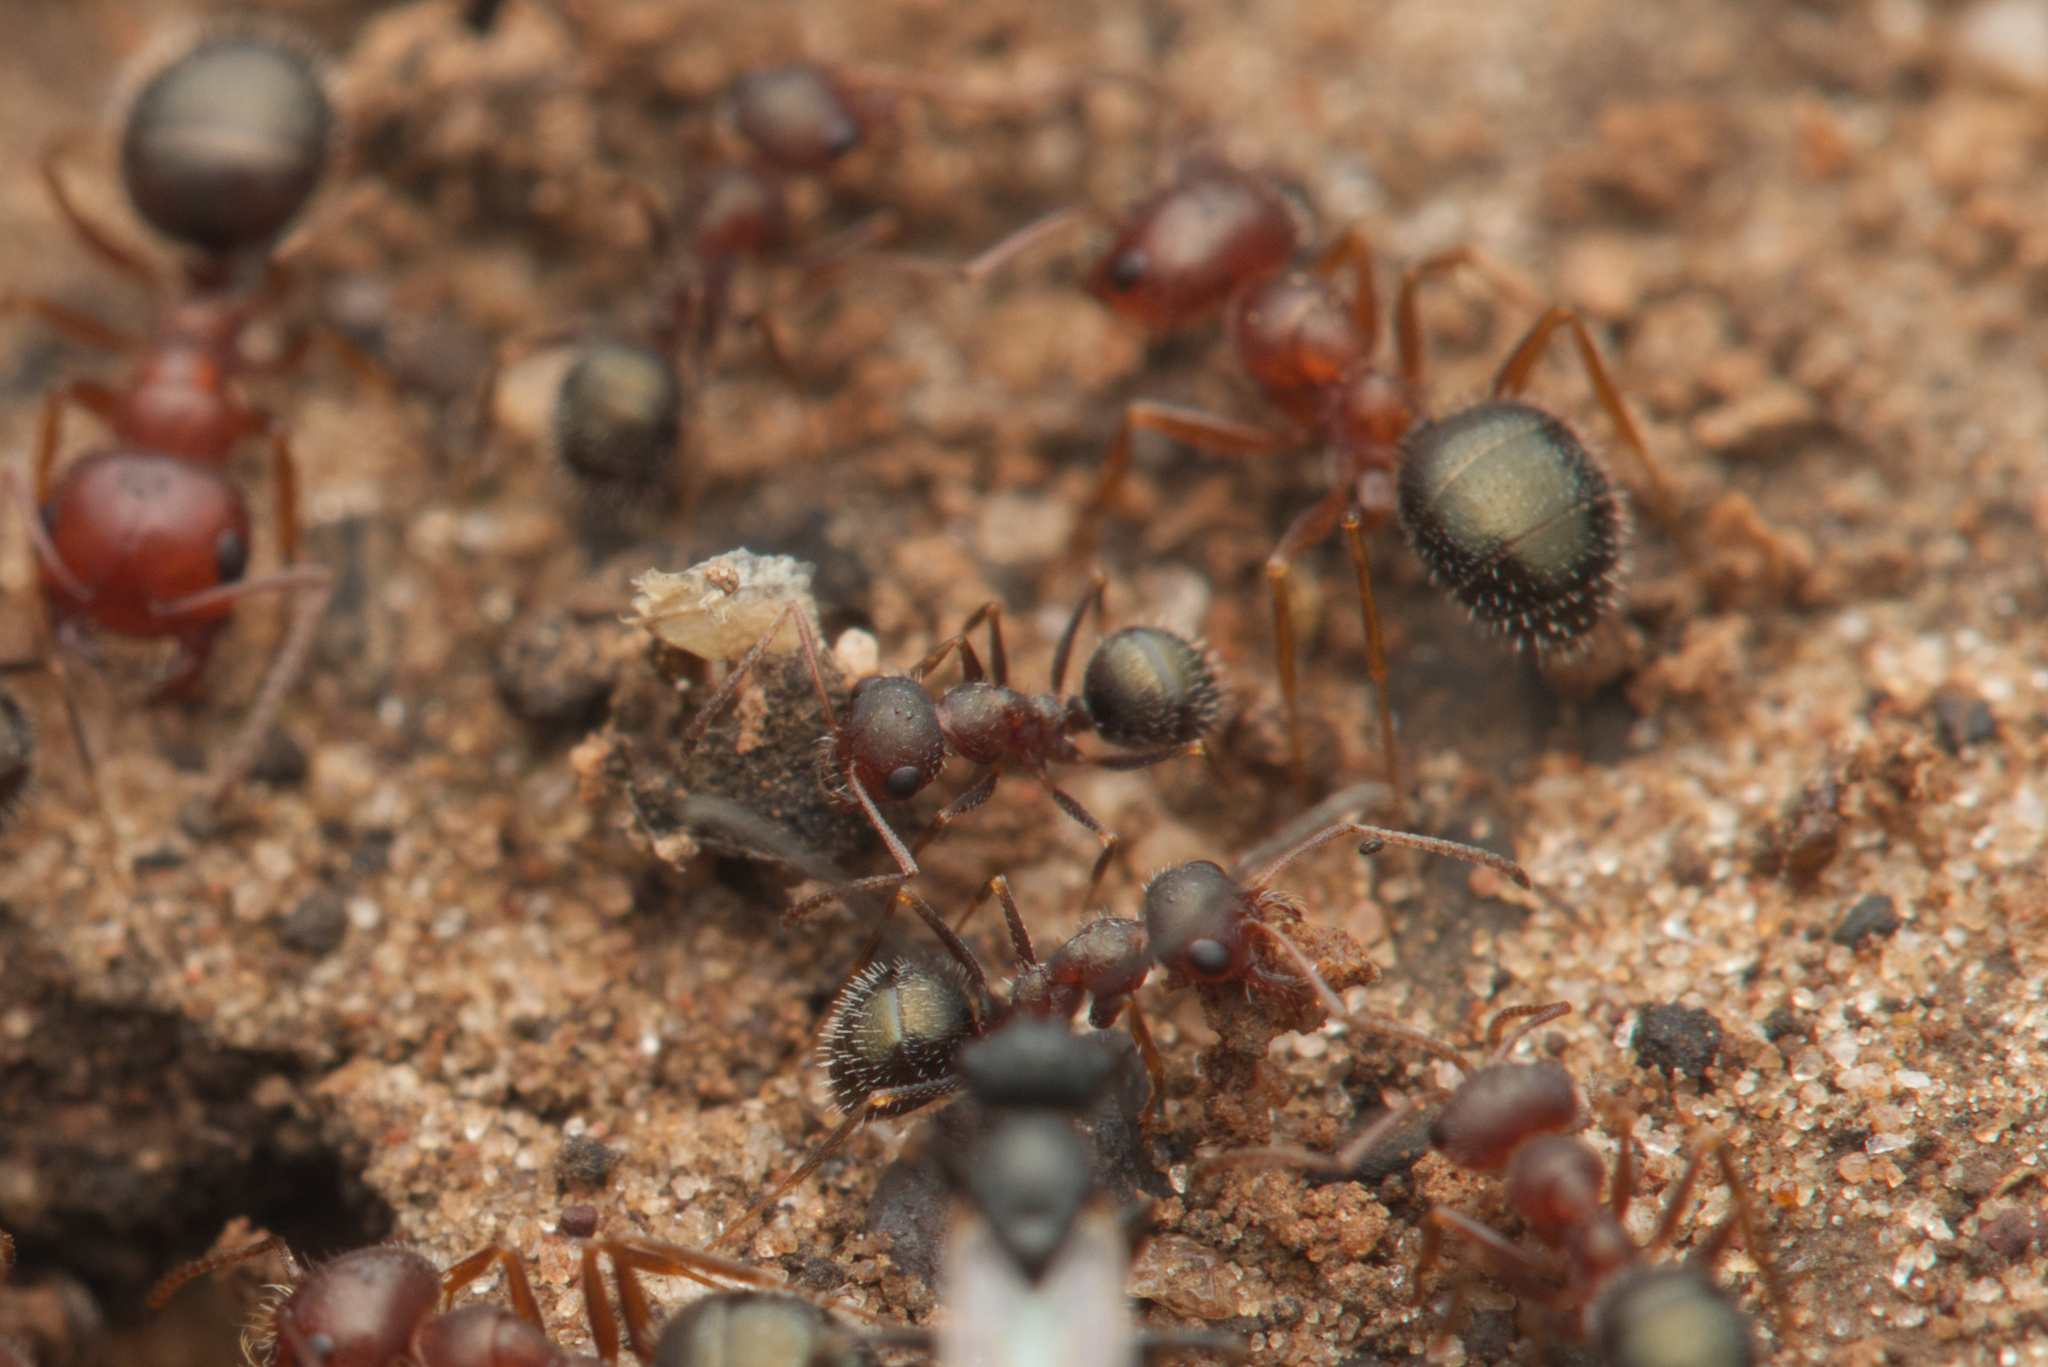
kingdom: Animalia
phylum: Arthropoda
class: Insecta
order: Hymenoptera
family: Formicidae
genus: Melophorus
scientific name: Melophorus bruneus
